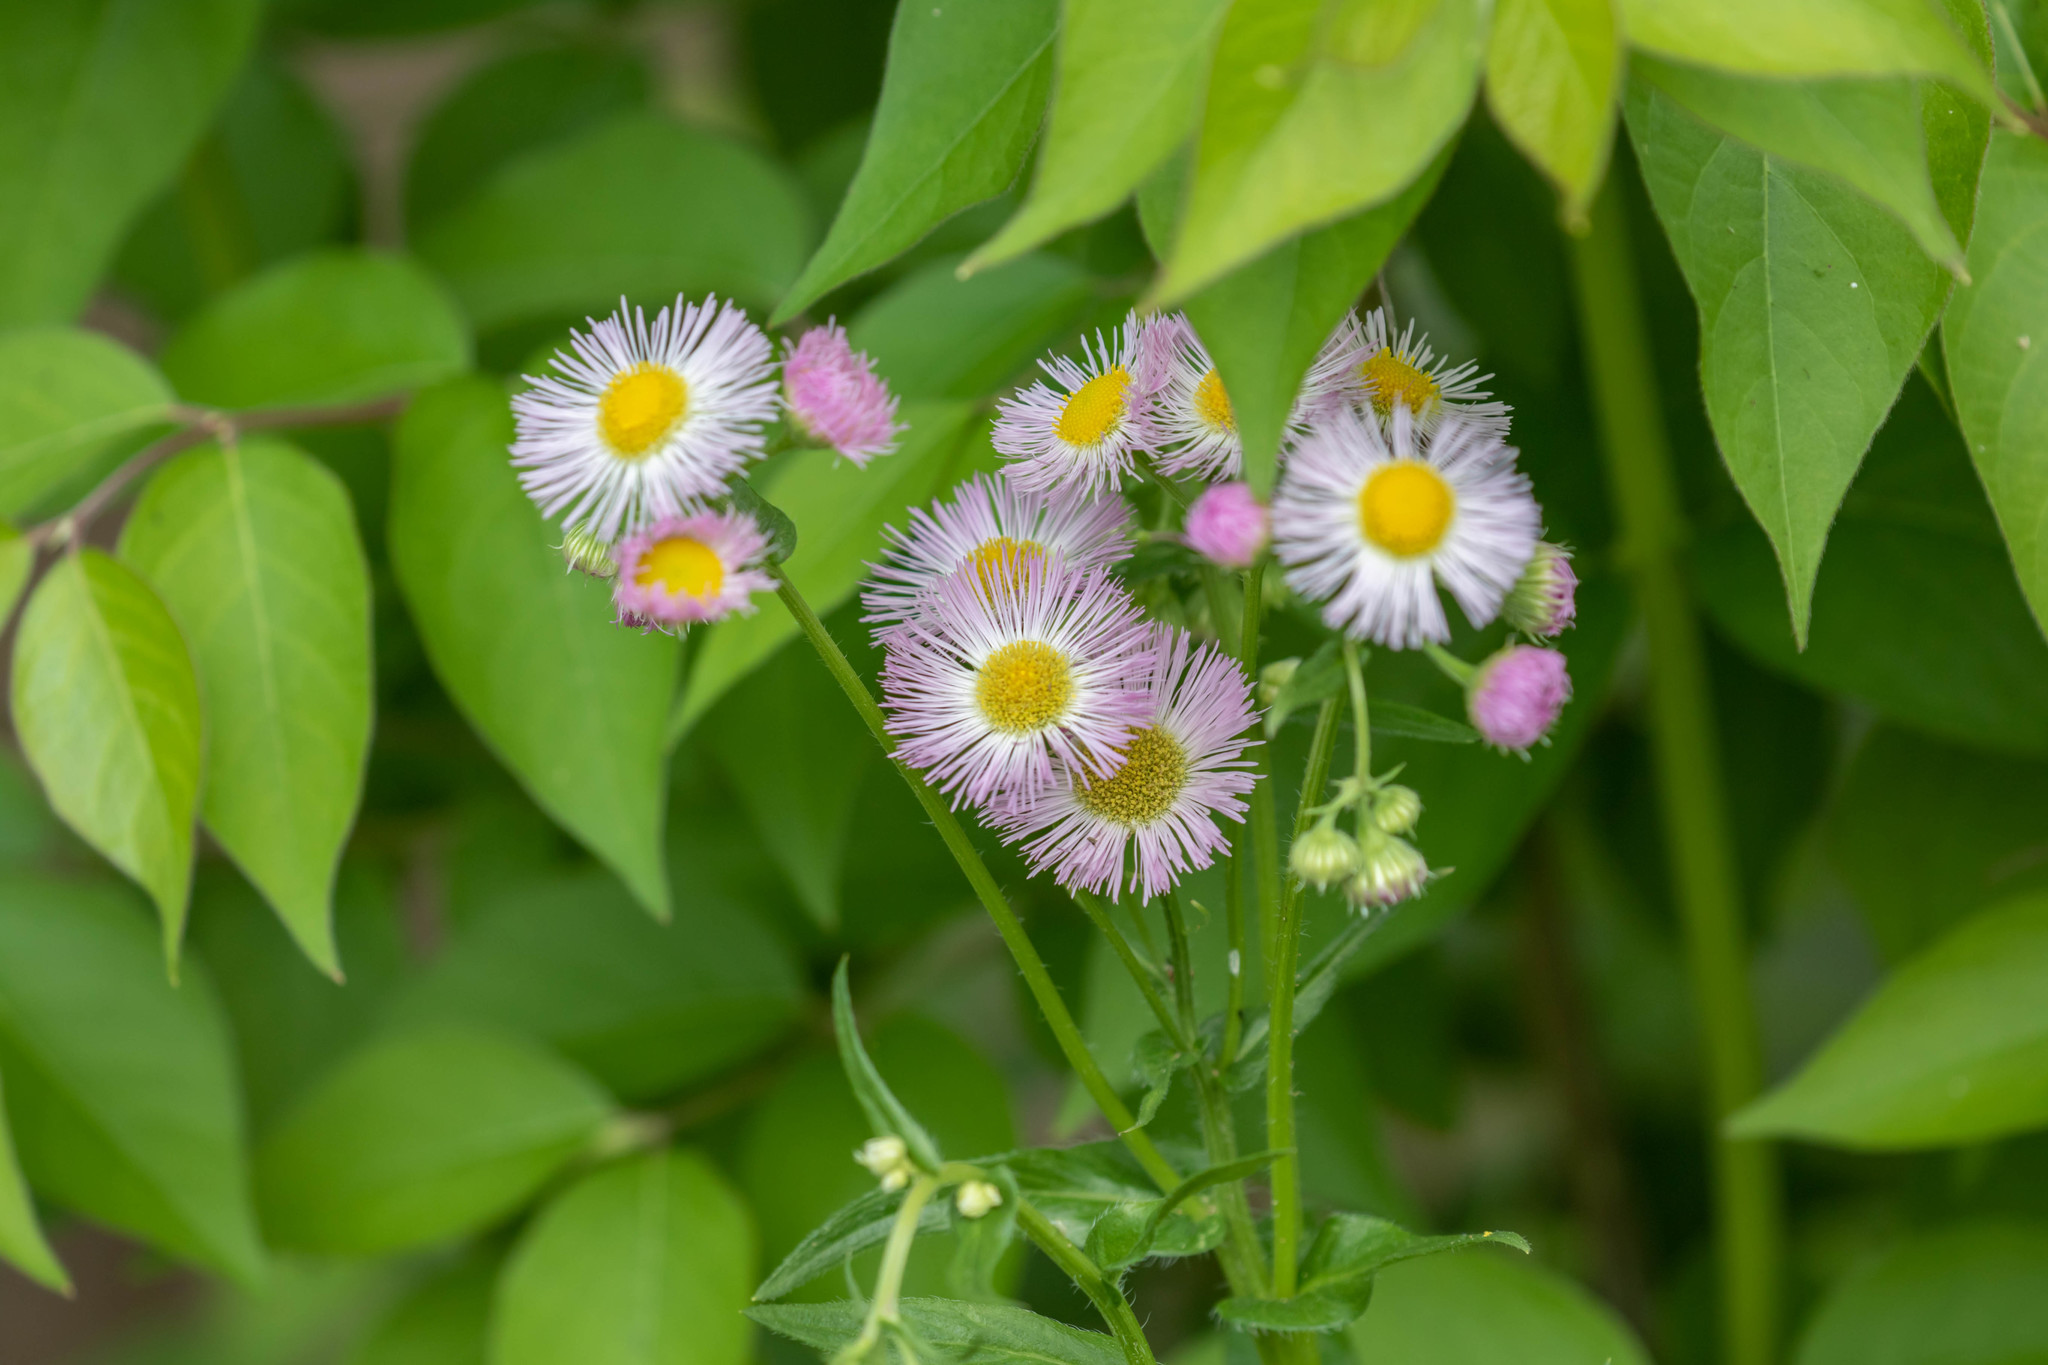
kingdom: Plantae
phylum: Tracheophyta
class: Magnoliopsida
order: Asterales
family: Asteraceae
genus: Erigeron
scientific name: Erigeron philadelphicus
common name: Robin's-plantain
